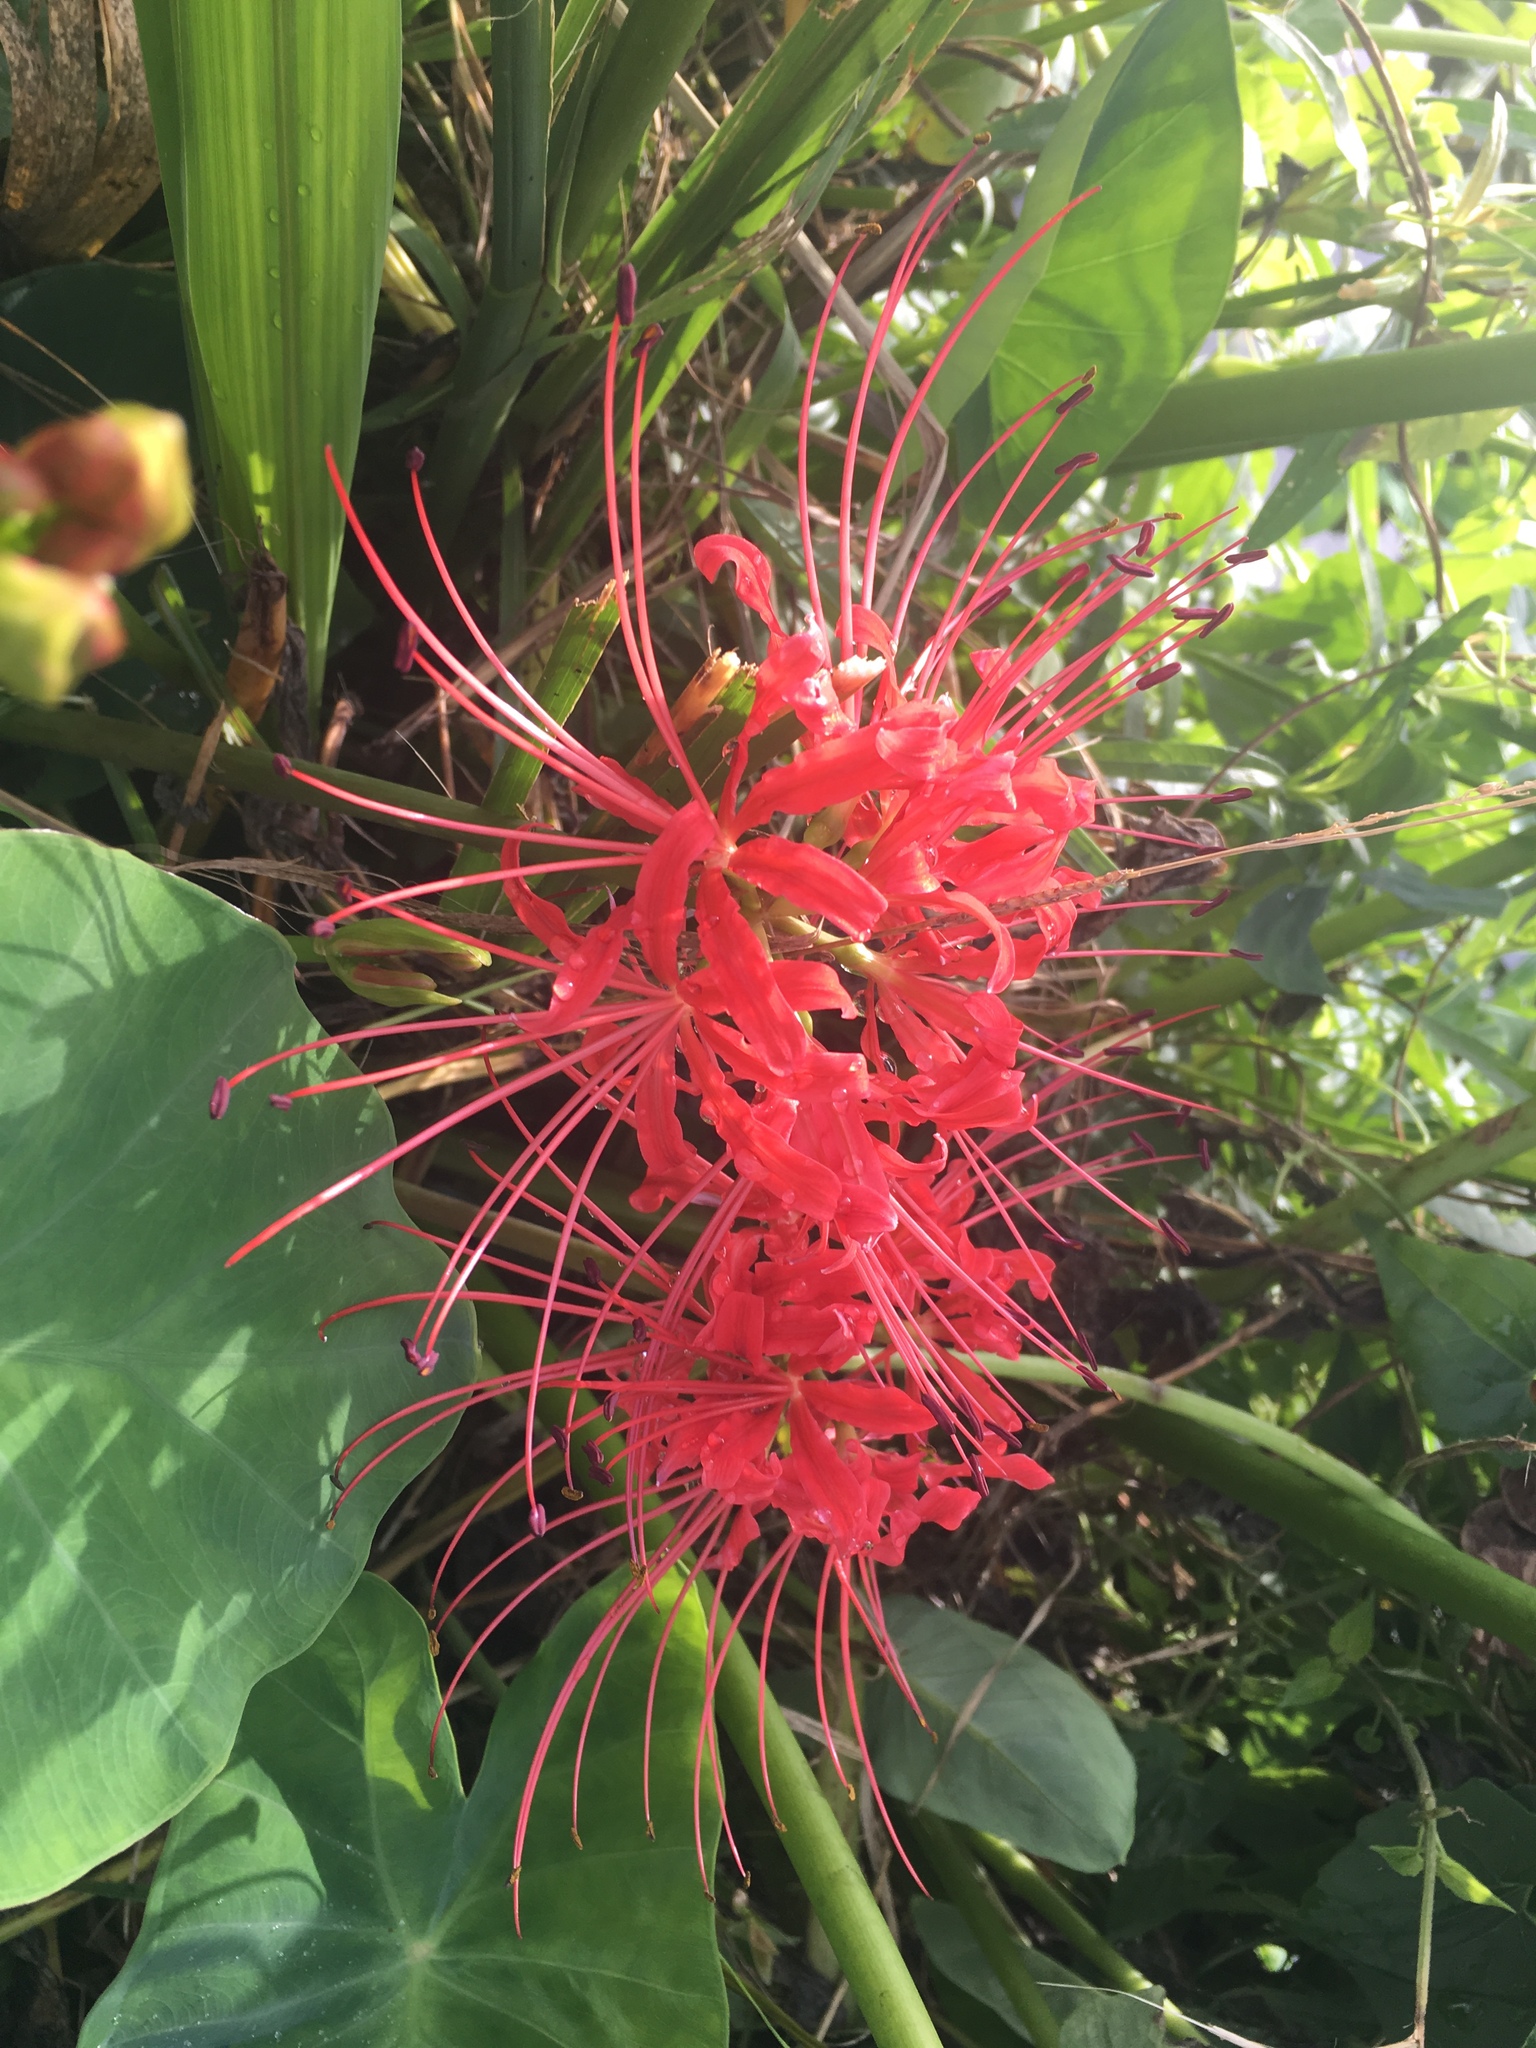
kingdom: Plantae
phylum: Tracheophyta
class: Liliopsida
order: Asparagales
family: Amaryllidaceae
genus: Lycoris
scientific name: Lycoris radiata
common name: Red spider lily
